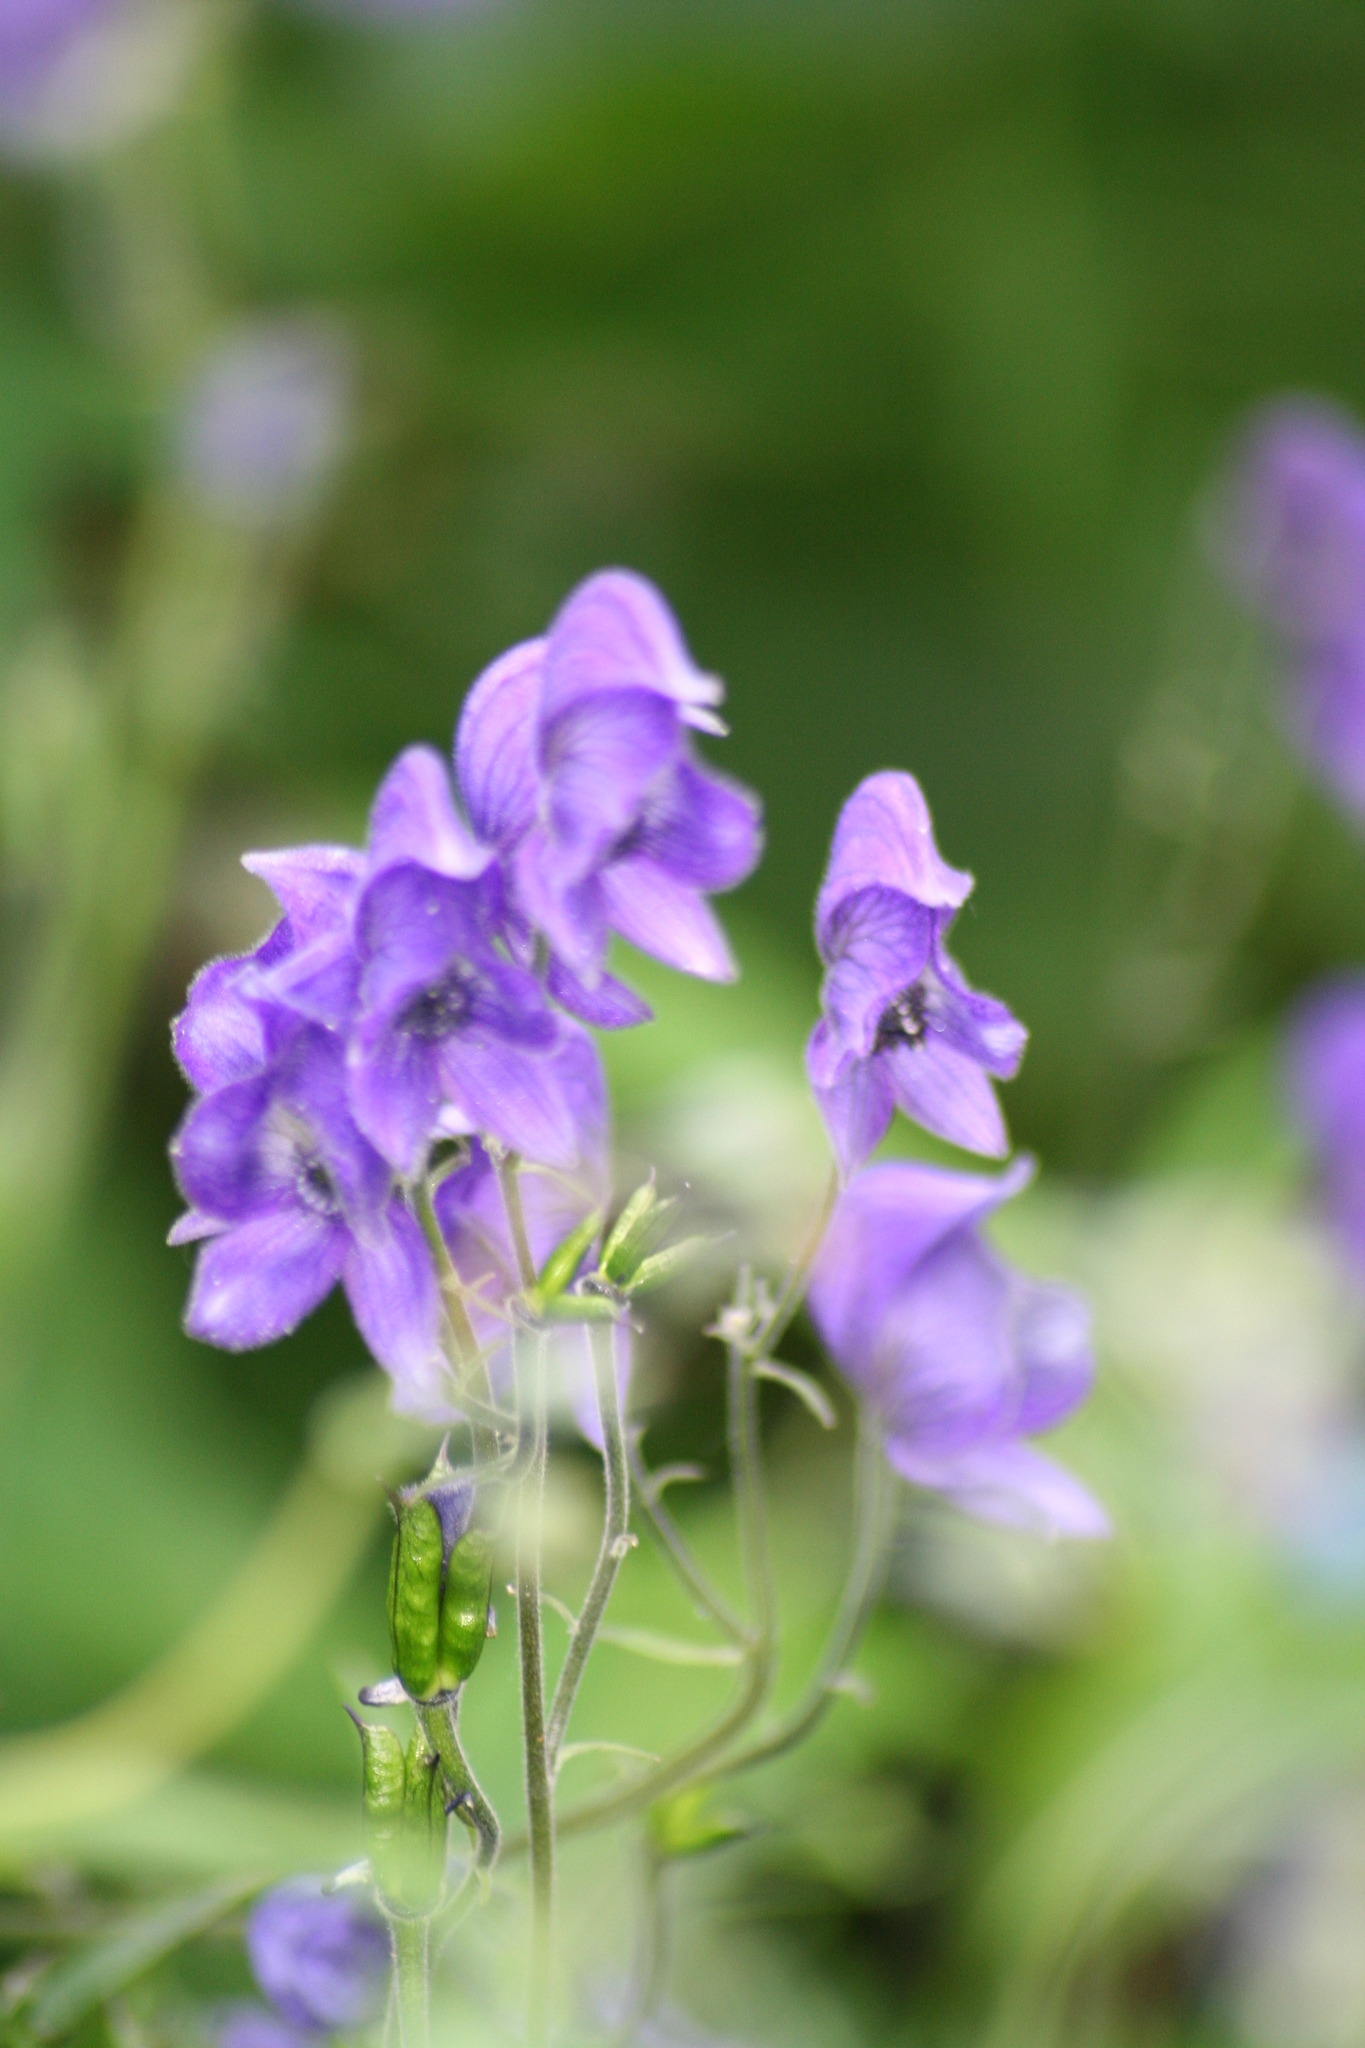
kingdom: Plantae
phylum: Tracheophyta
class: Magnoliopsida
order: Ranunculales
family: Ranunculaceae
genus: Aconitum
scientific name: Aconitum delphiniifolium
